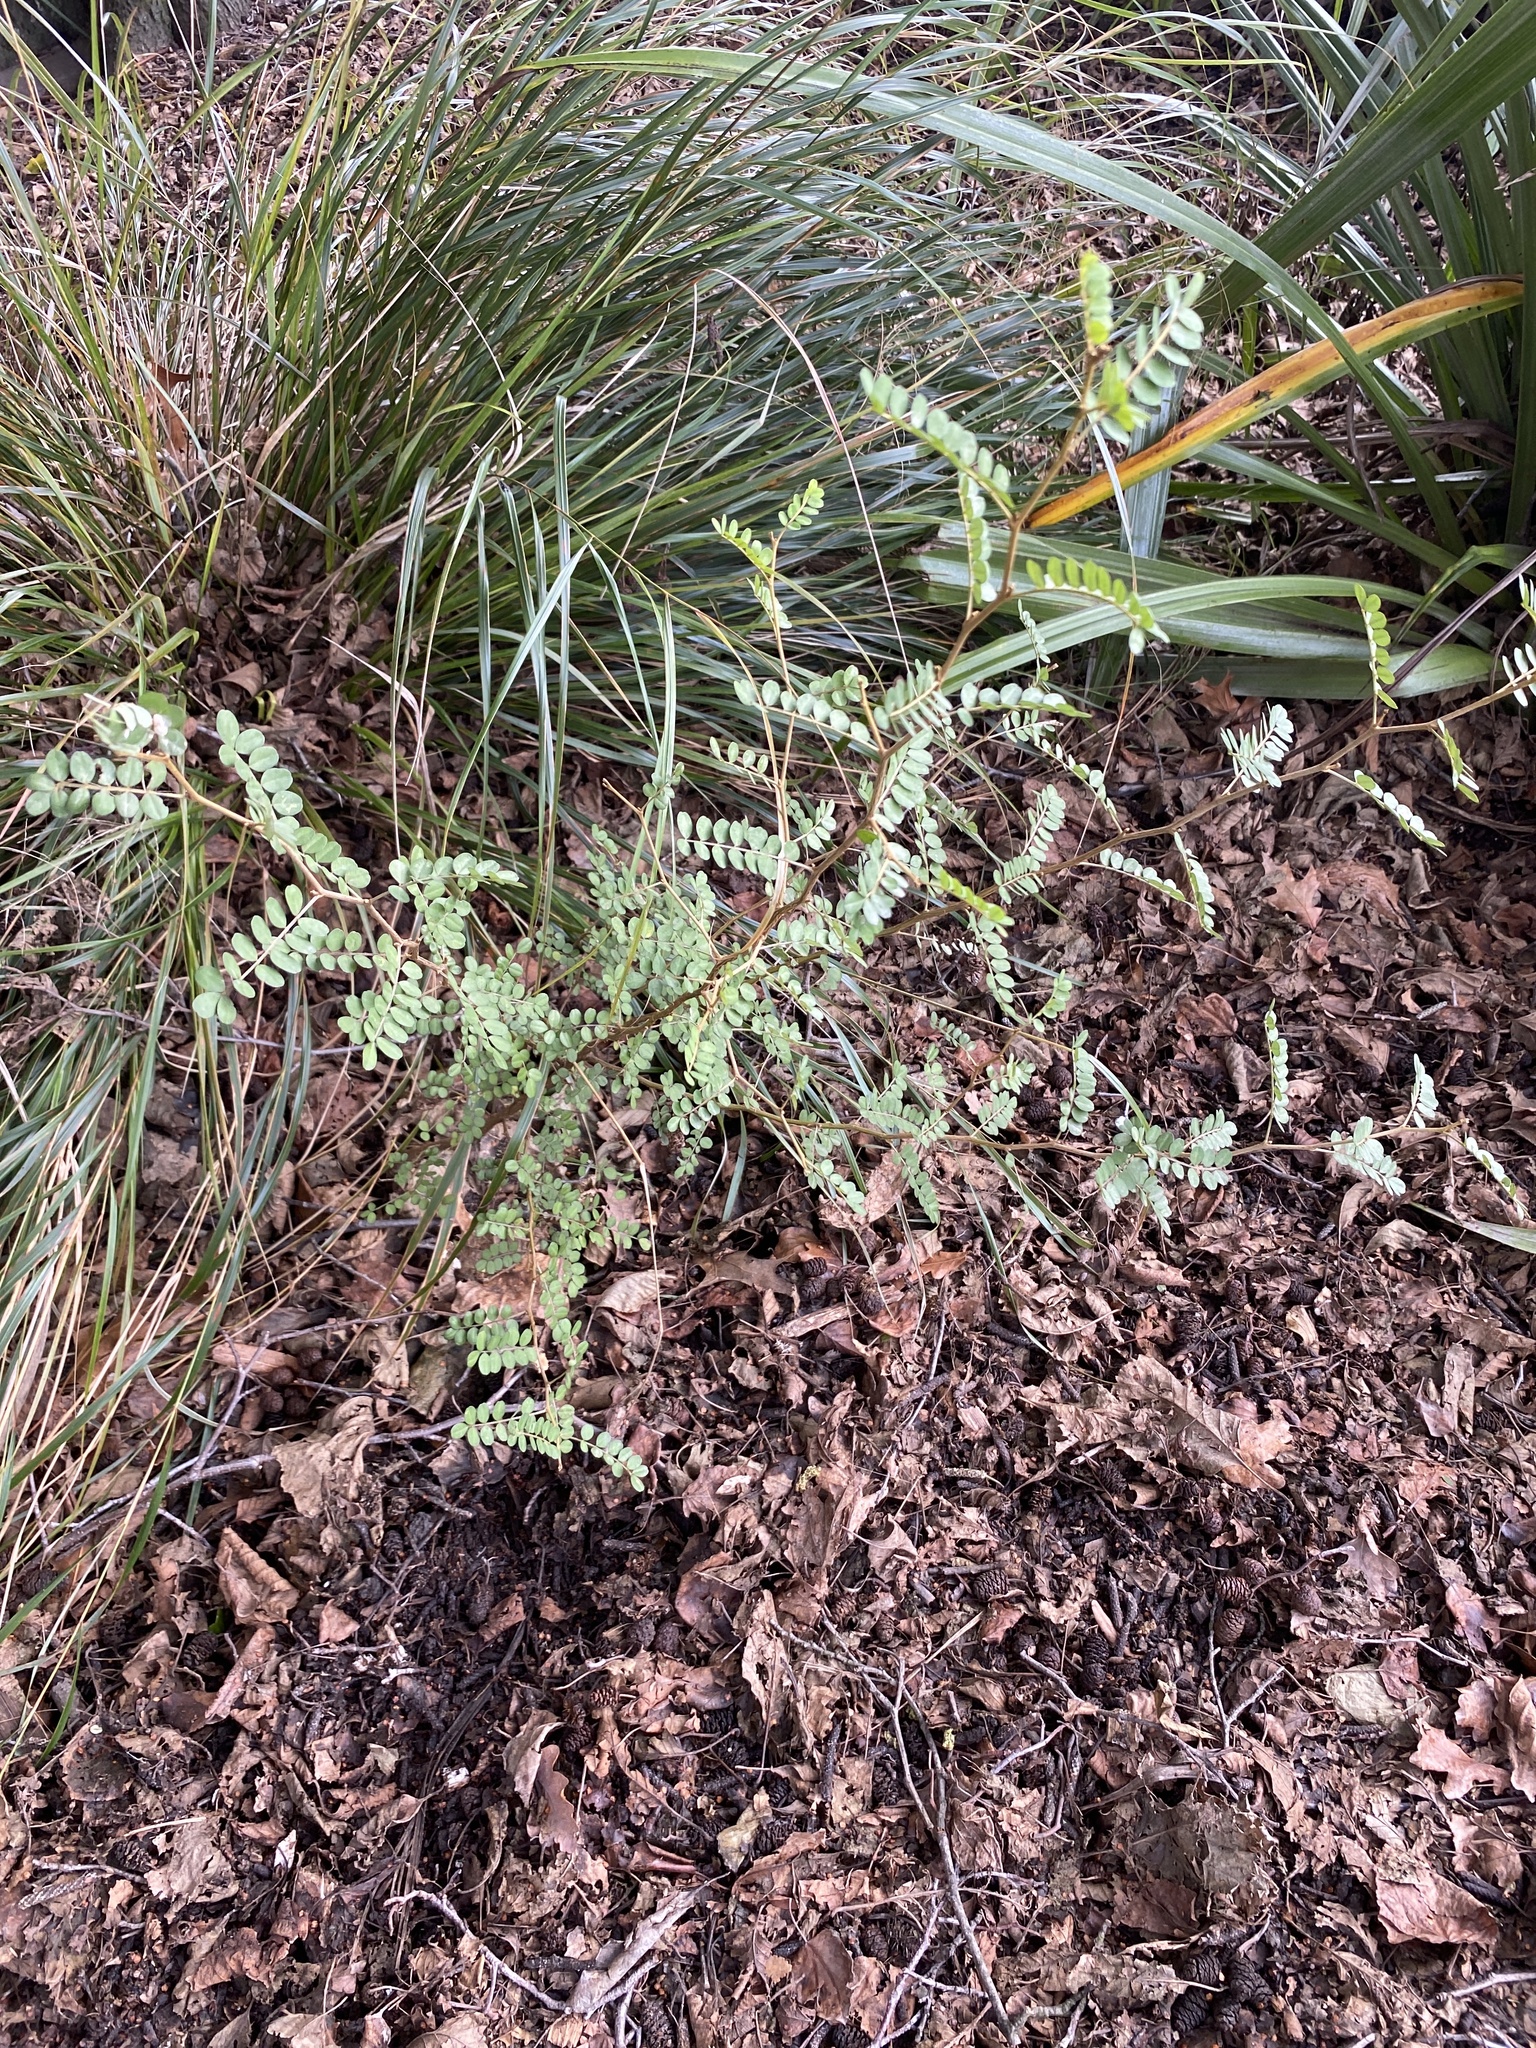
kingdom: Plantae
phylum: Tracheophyta
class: Magnoliopsida
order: Fabales
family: Fabaceae
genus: Sophora
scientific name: Sophora microphylla
